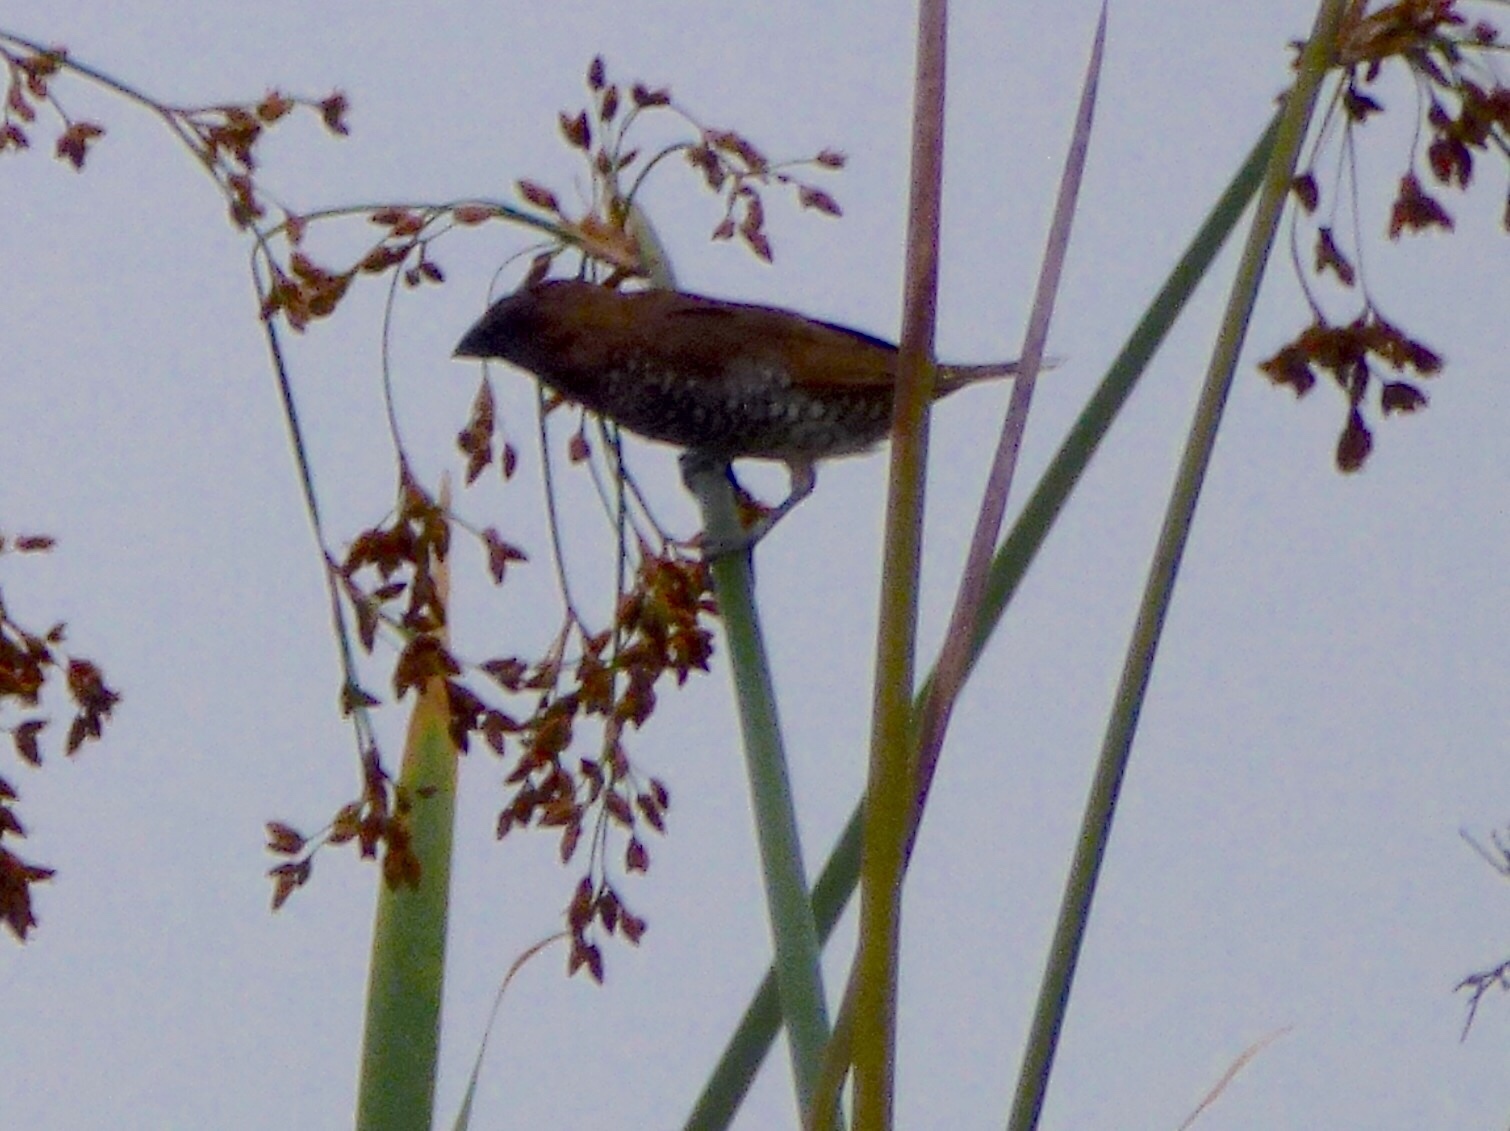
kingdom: Animalia
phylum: Chordata
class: Aves
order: Passeriformes
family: Estrildidae
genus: Lonchura
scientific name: Lonchura punctulata
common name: Scaly-breasted munia
